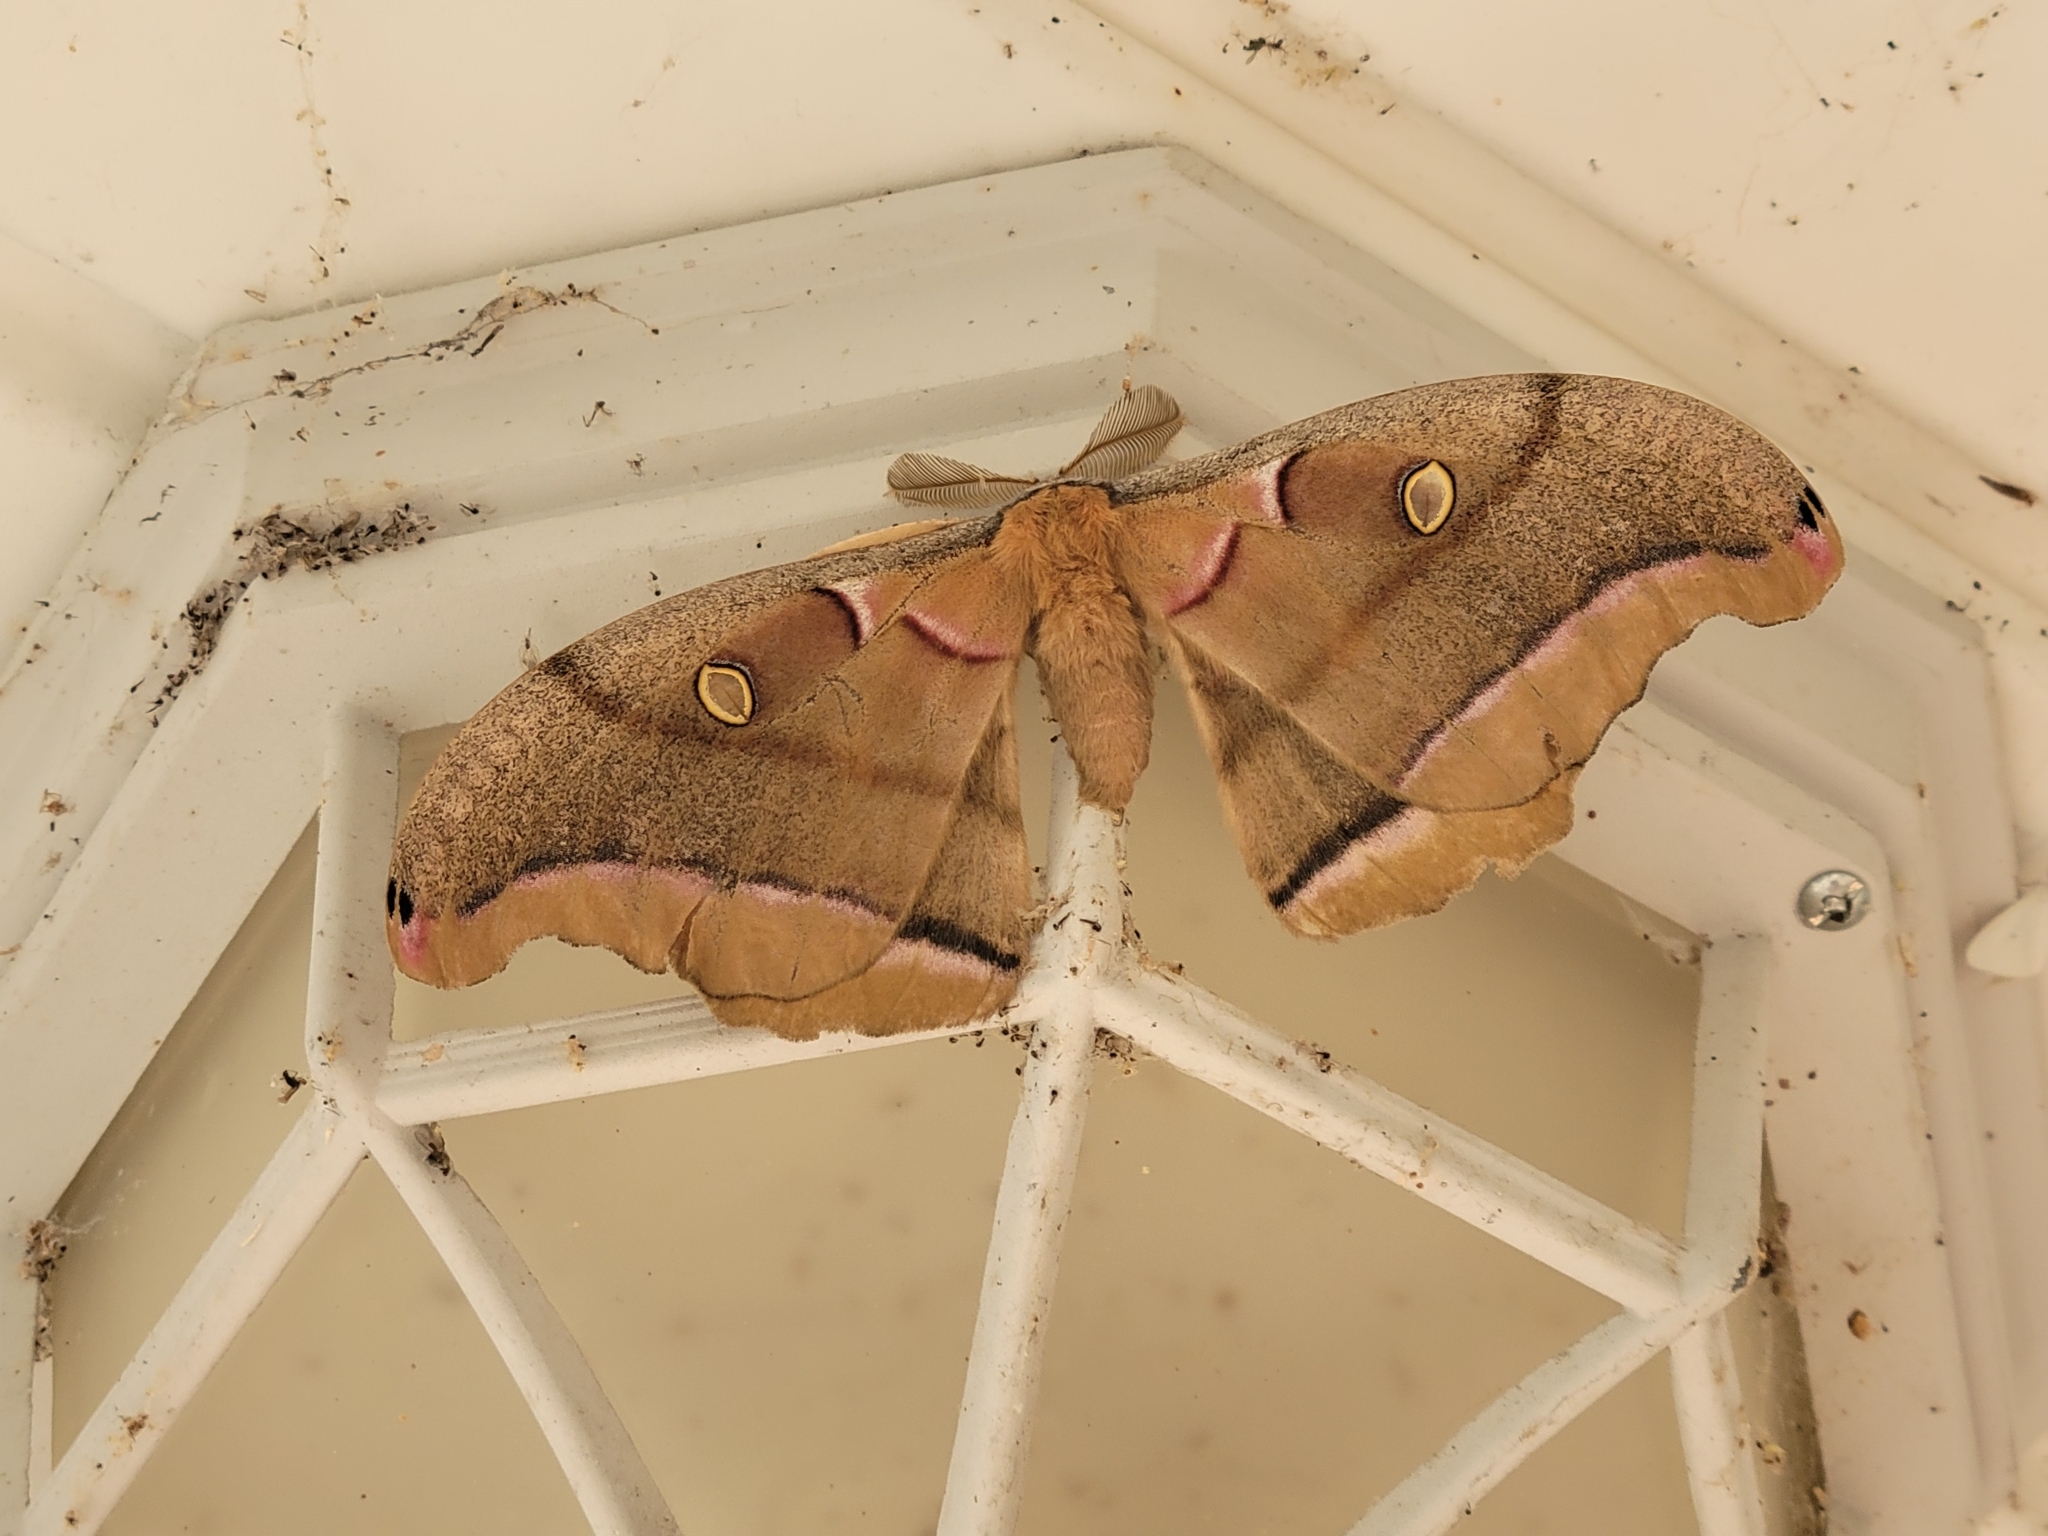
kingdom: Animalia
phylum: Arthropoda
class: Insecta
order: Lepidoptera
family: Saturniidae
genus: Antheraea
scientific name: Antheraea polyphemus
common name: Polyphemus moth
